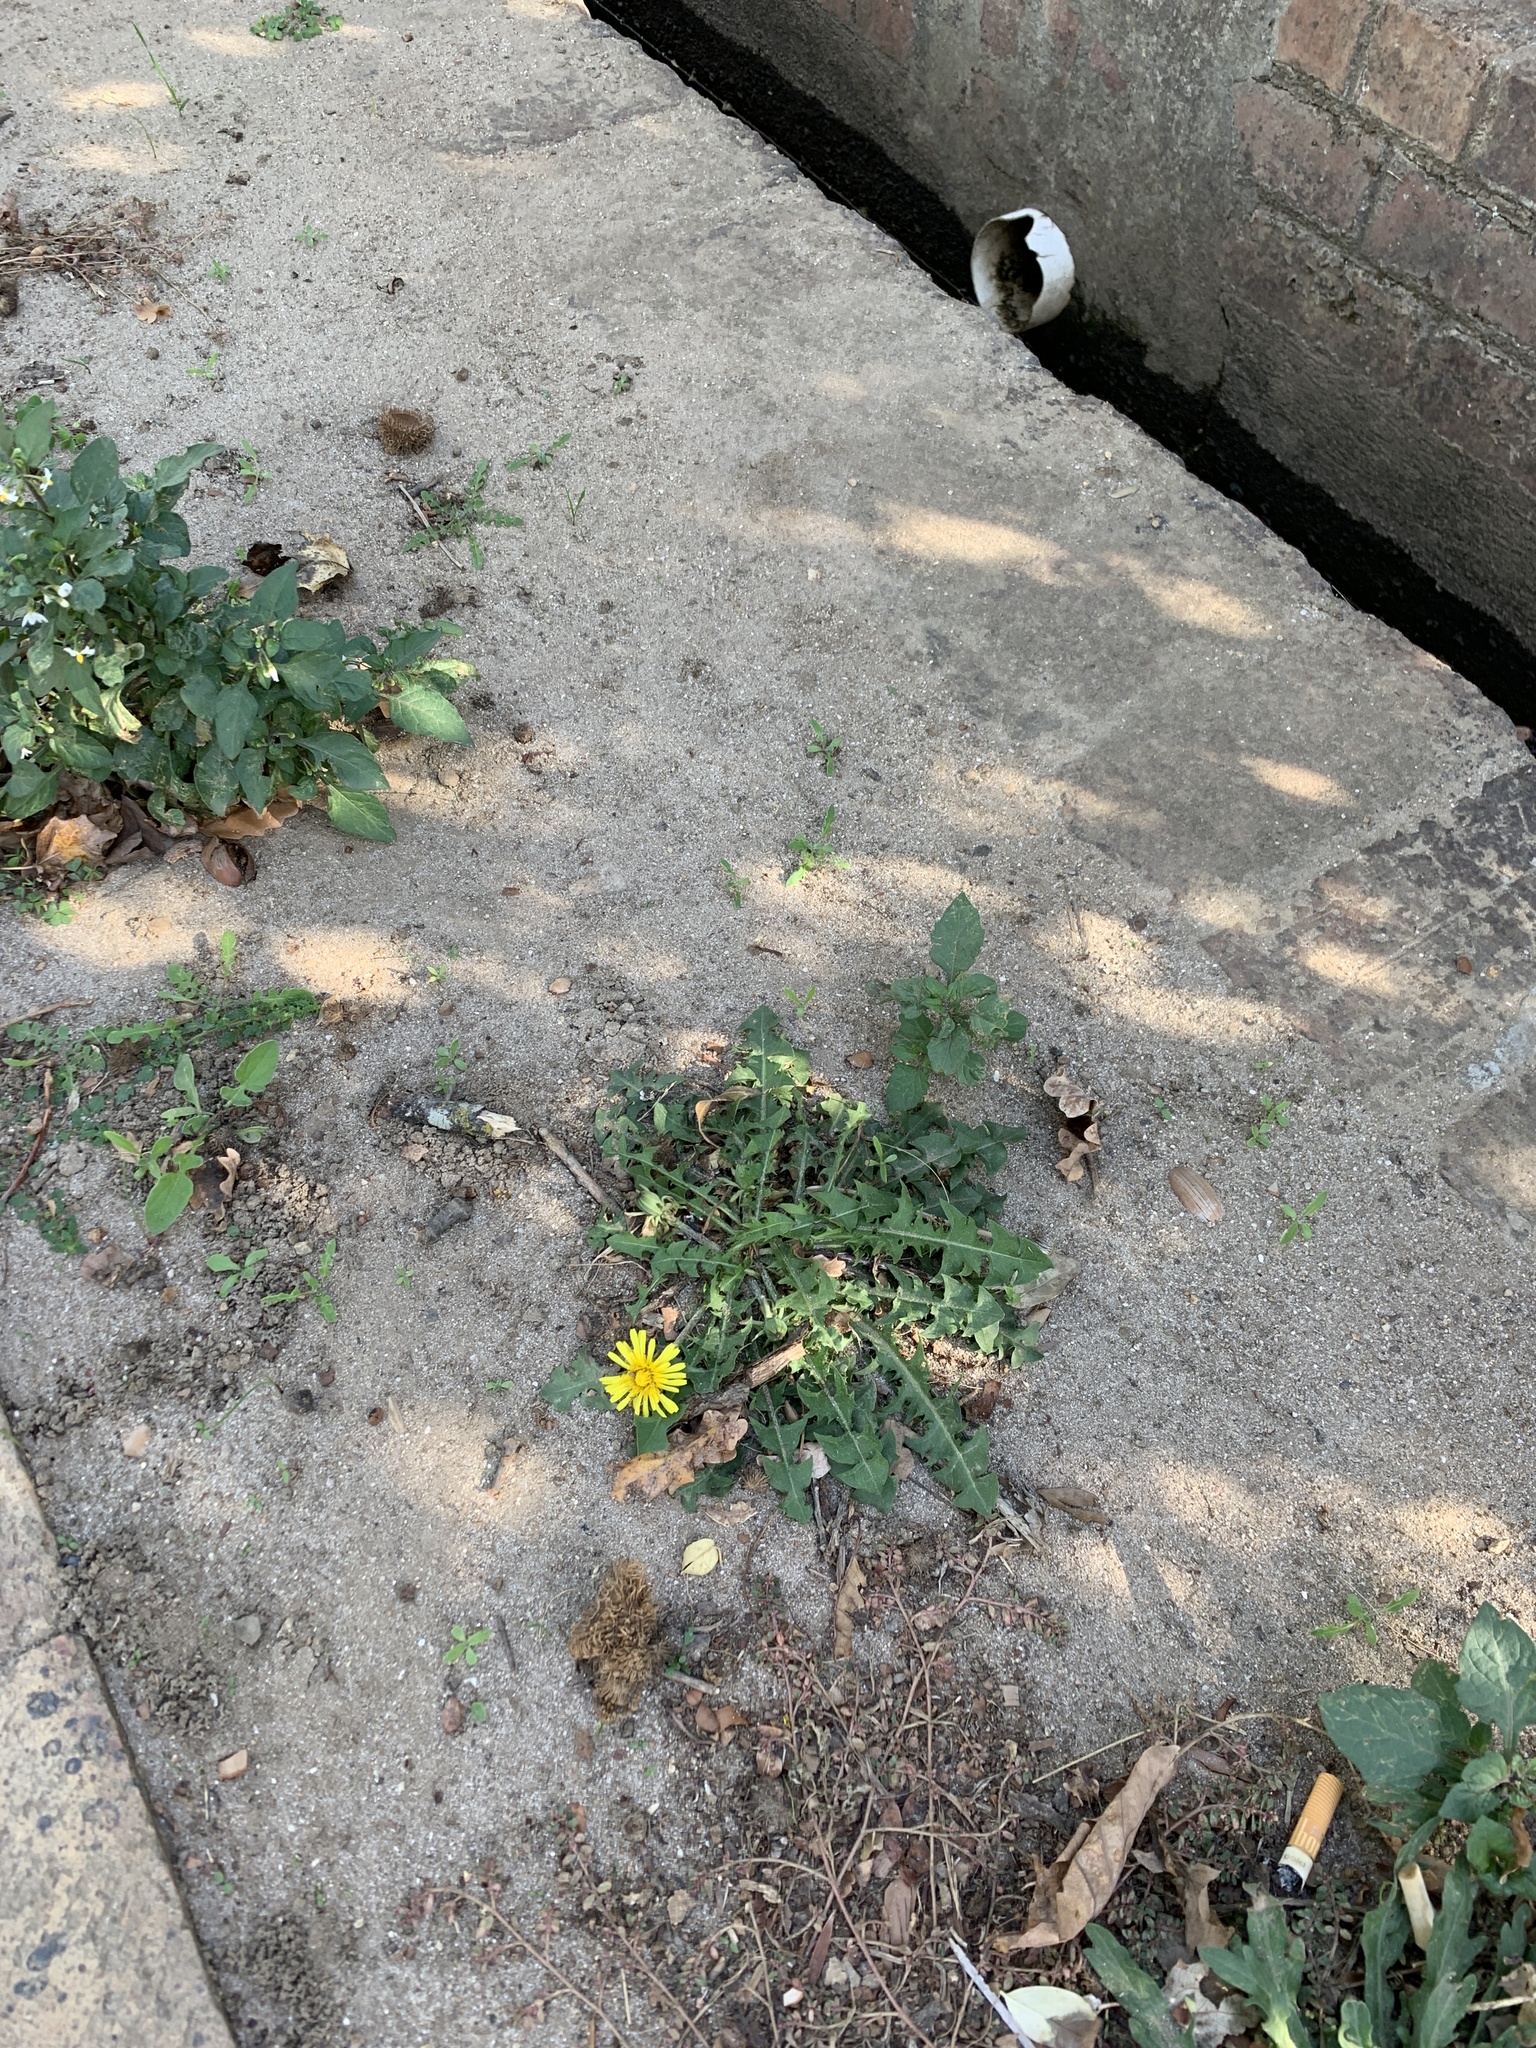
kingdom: Plantae
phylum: Tracheophyta
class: Magnoliopsida
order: Asterales
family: Asteraceae
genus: Taraxacum
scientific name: Taraxacum officinale
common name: Common dandelion
